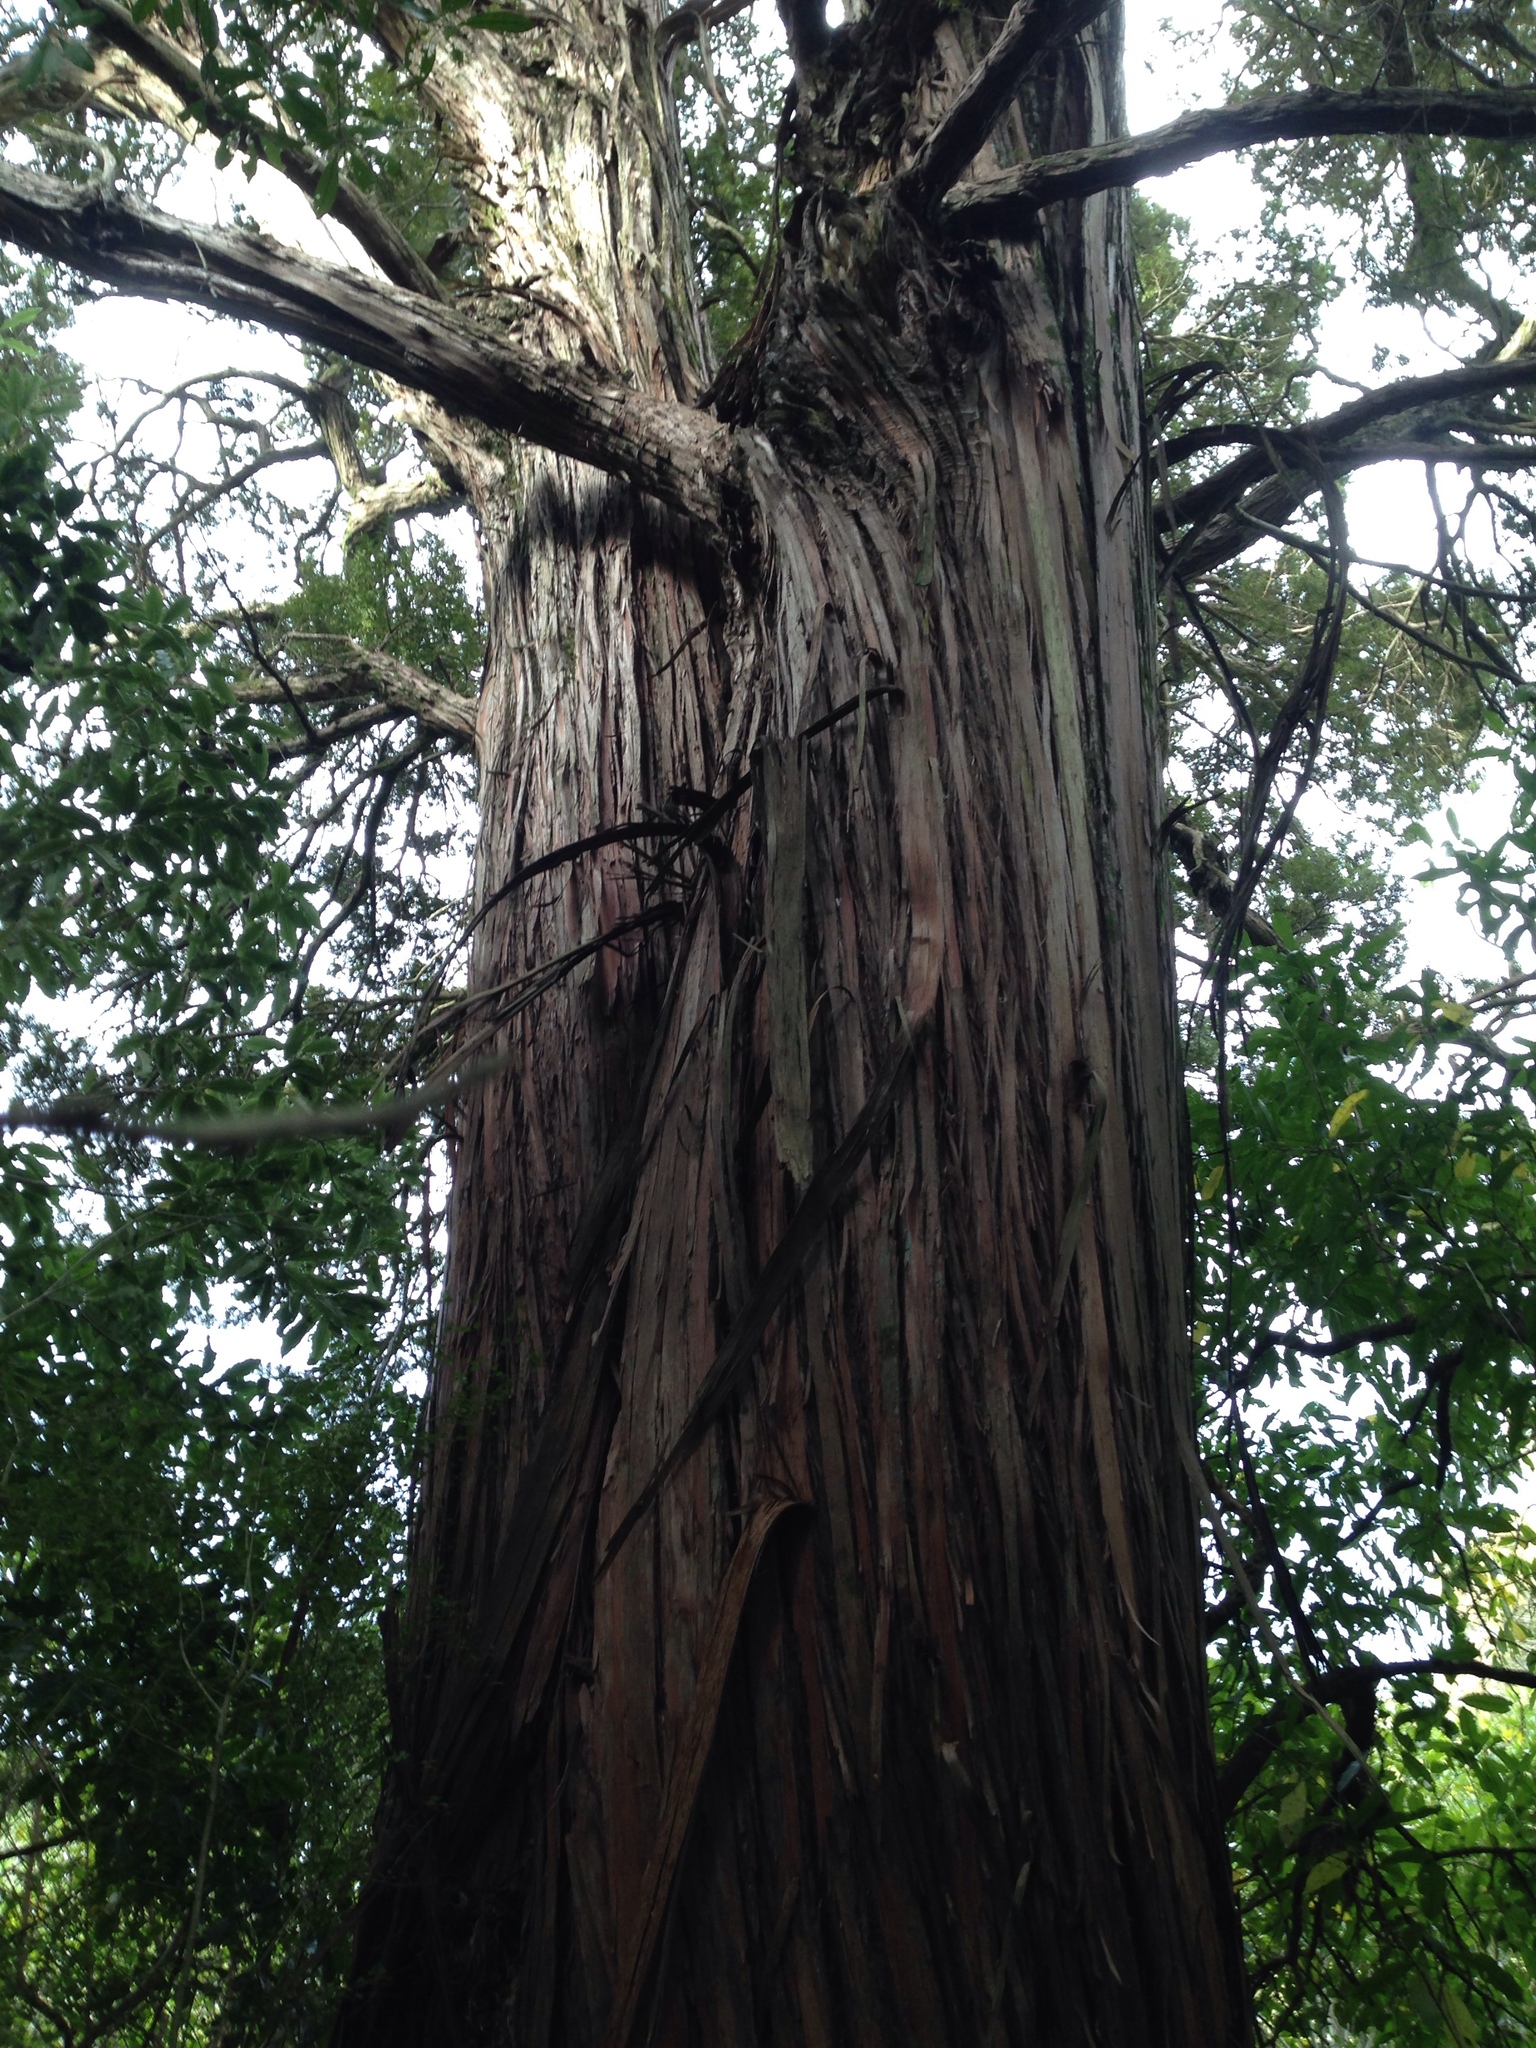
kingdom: Plantae
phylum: Tracheophyta
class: Pinopsida
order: Pinales
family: Podocarpaceae
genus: Podocarpus
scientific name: Podocarpus totara
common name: Totara
